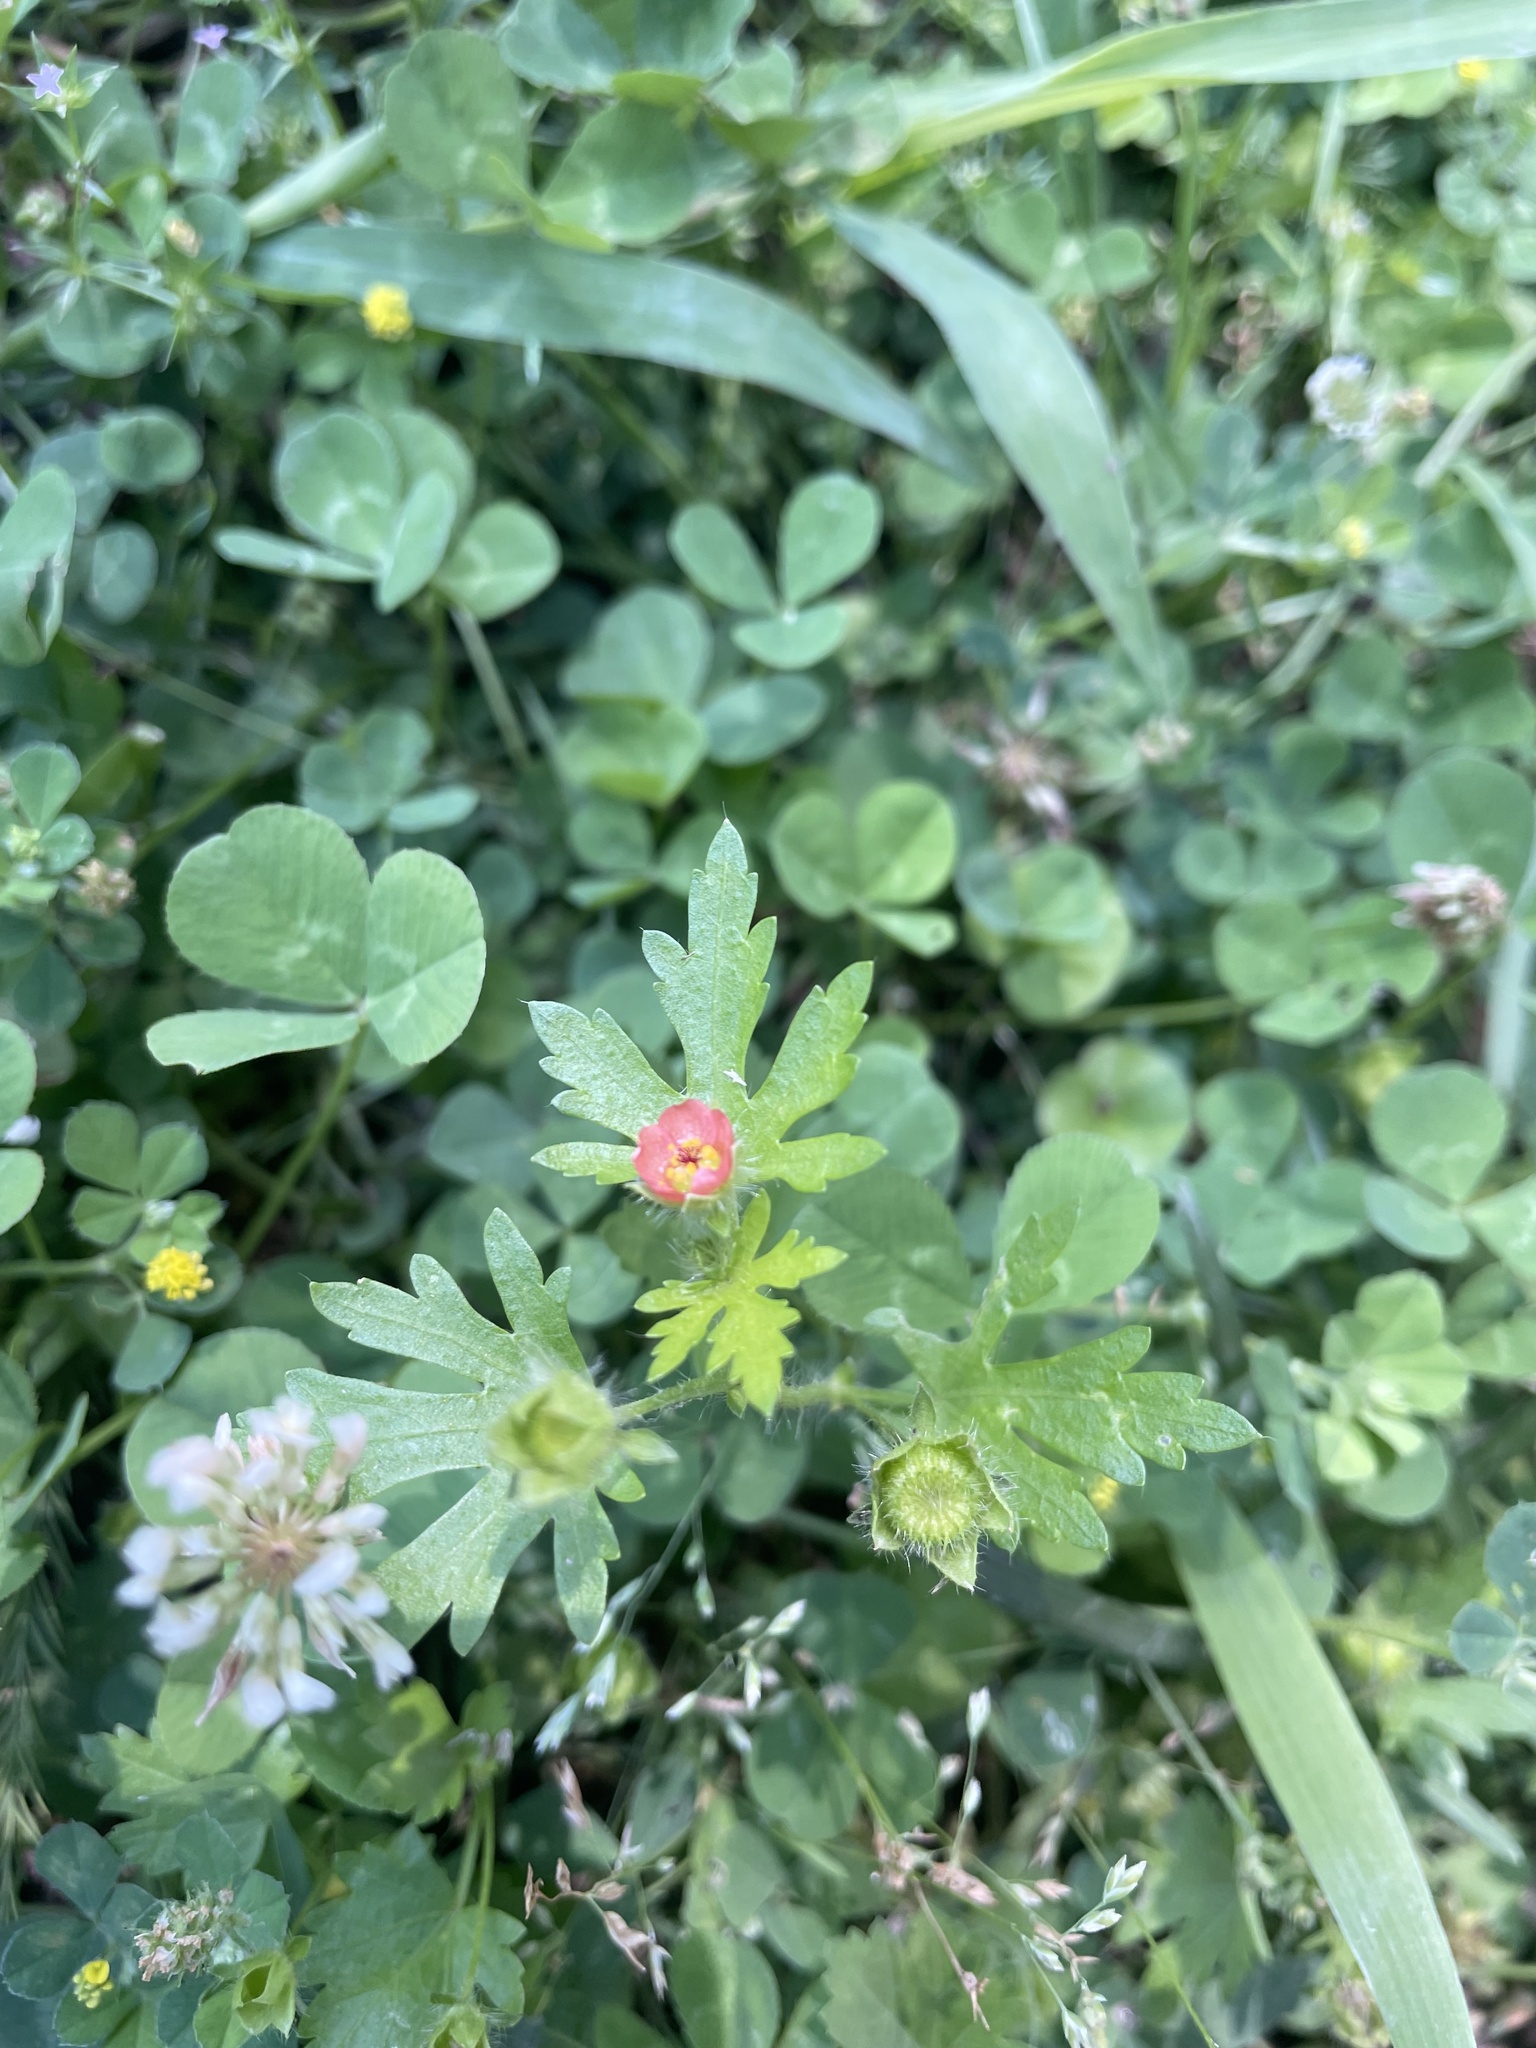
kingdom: Plantae
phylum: Tracheophyta
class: Magnoliopsida
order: Malvales
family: Malvaceae
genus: Modiola
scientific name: Modiola caroliniana
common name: Carolina bristlemallow
